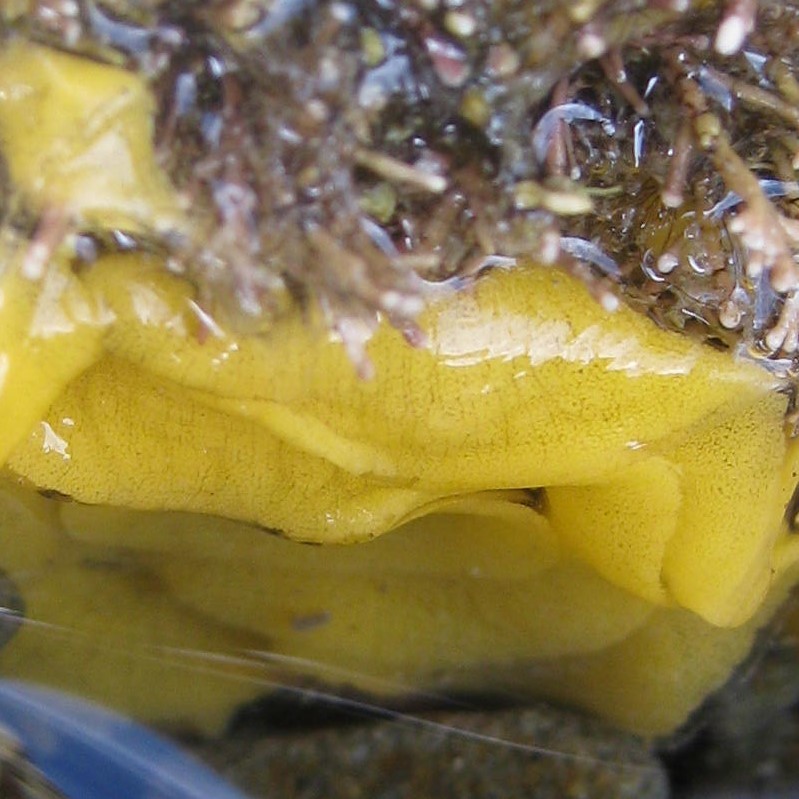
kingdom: Animalia
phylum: Mollusca
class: Gastropoda
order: Nudibranchia
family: Dorididae
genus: Doriopsis
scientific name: Doriopsis granulosa
